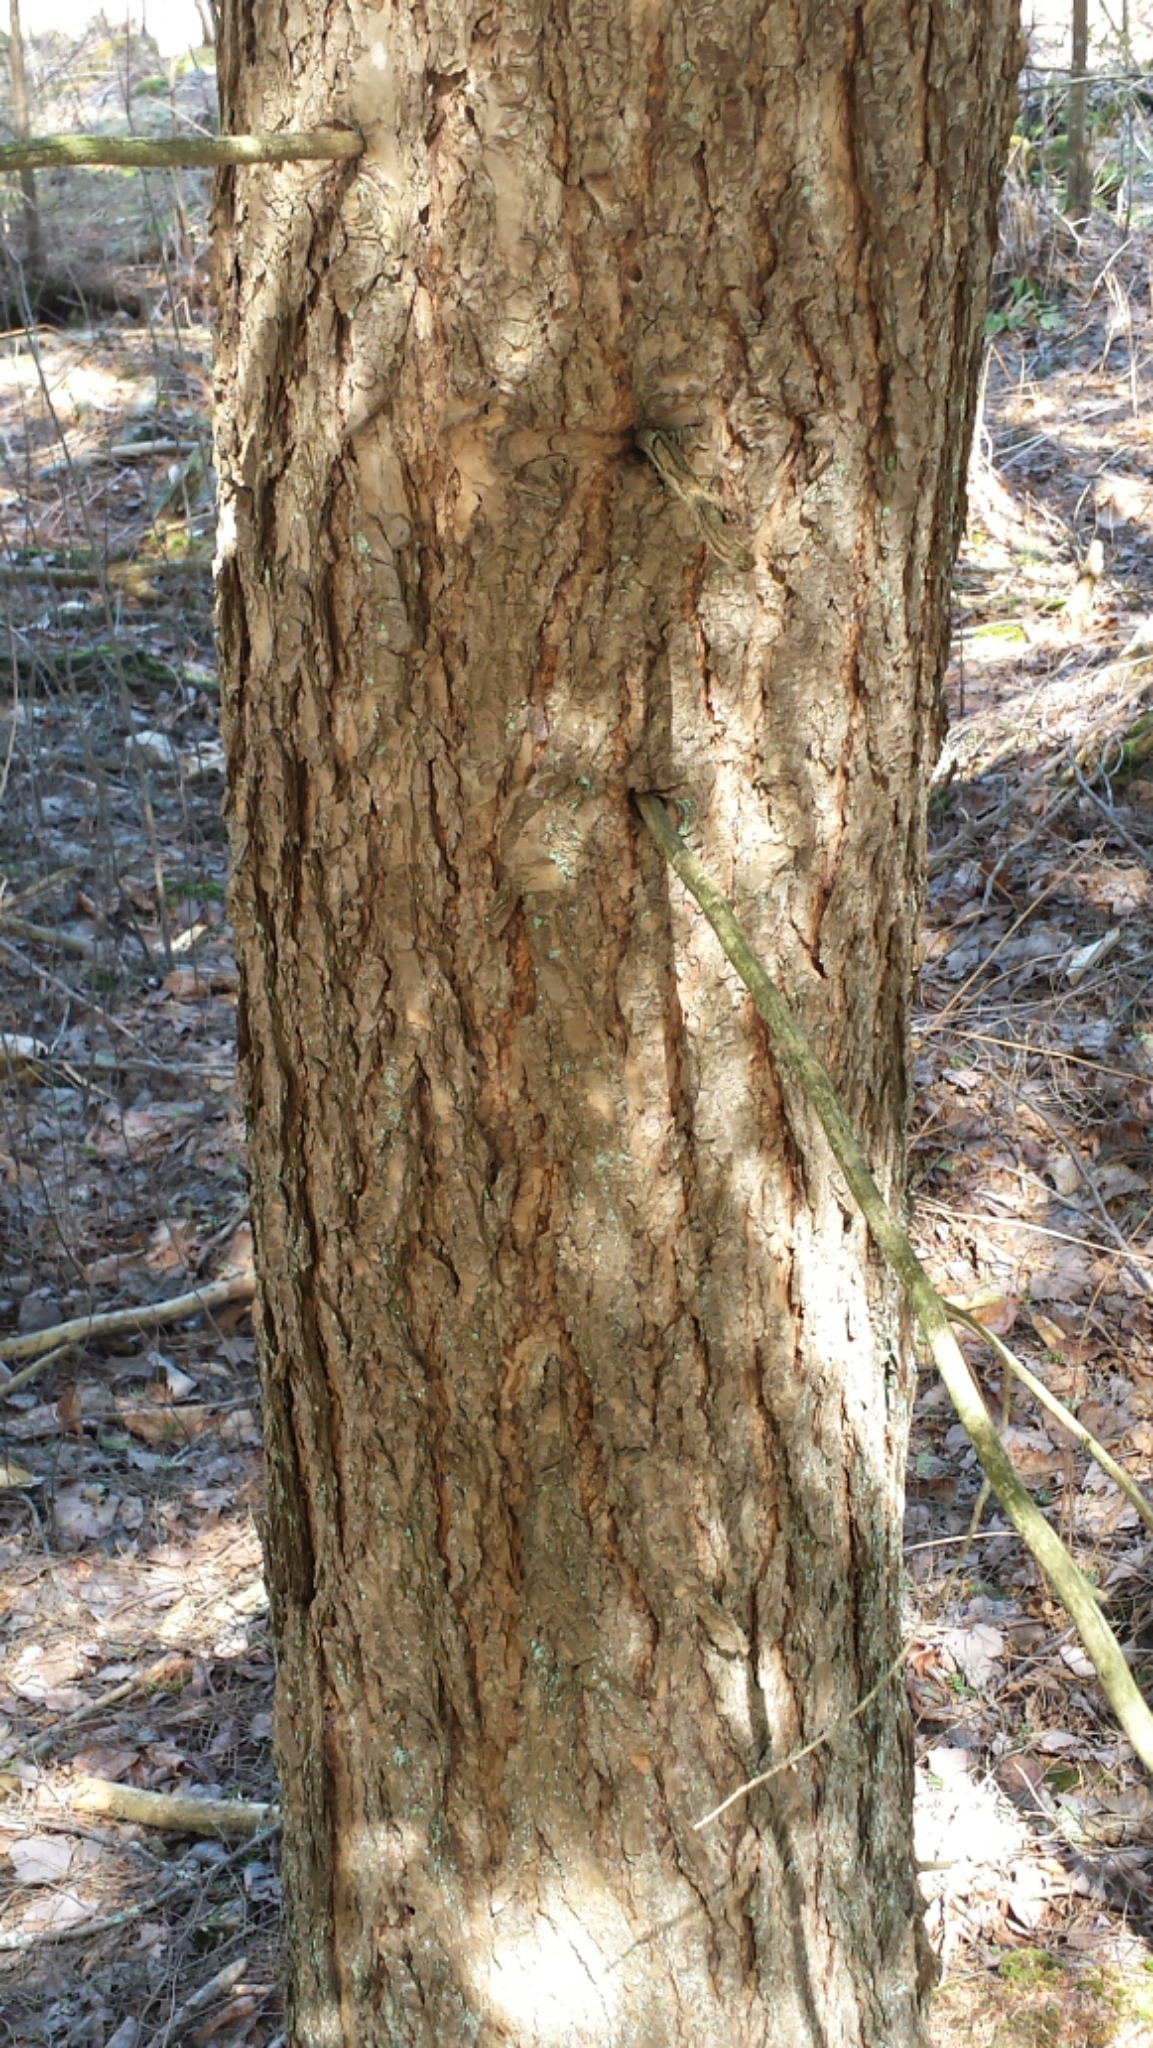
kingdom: Plantae
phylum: Tracheophyta
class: Pinopsida
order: Pinales
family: Pinaceae
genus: Tsuga
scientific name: Tsuga canadensis
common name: Eastern hemlock
